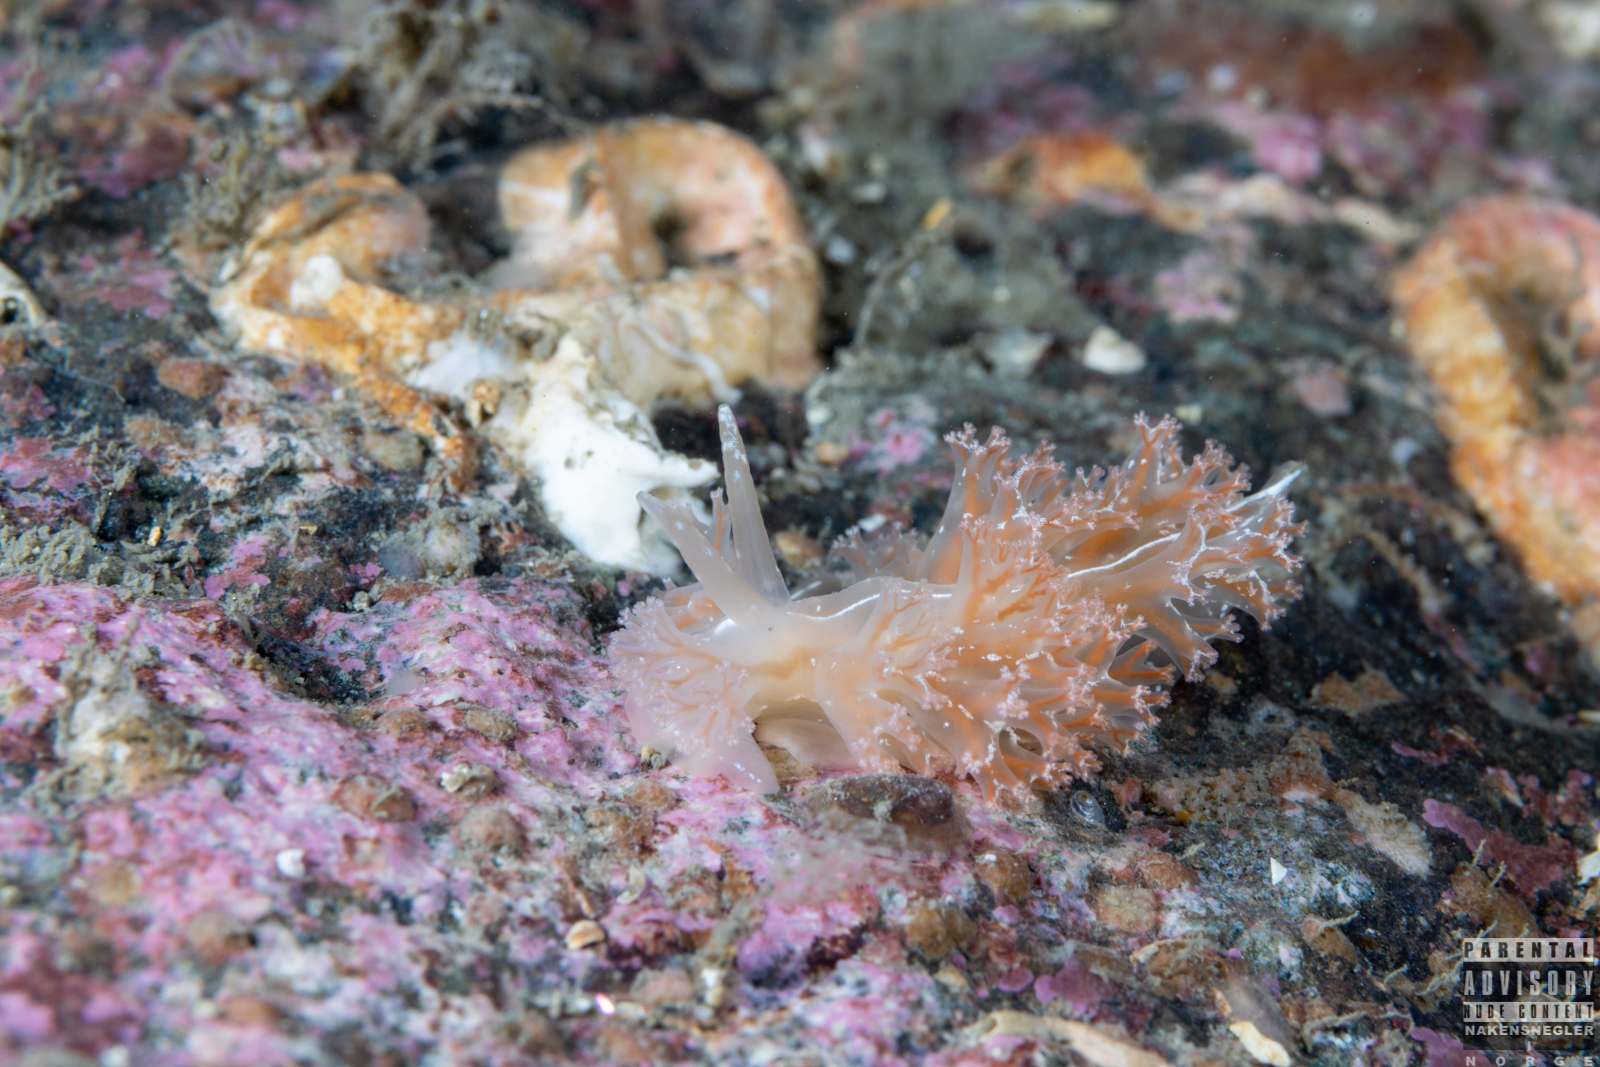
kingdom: Animalia
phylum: Mollusca
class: Gastropoda
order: Nudibranchia
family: Heroidae
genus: Hero
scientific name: Hero formosa
